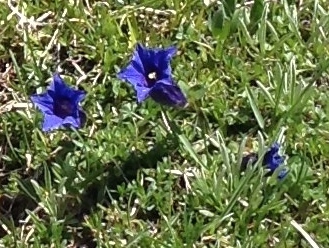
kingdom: Plantae
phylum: Tracheophyta
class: Magnoliopsida
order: Gentianales
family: Gentianaceae
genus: Gentiana
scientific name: Gentiana clusii
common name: Trumpet gentian
